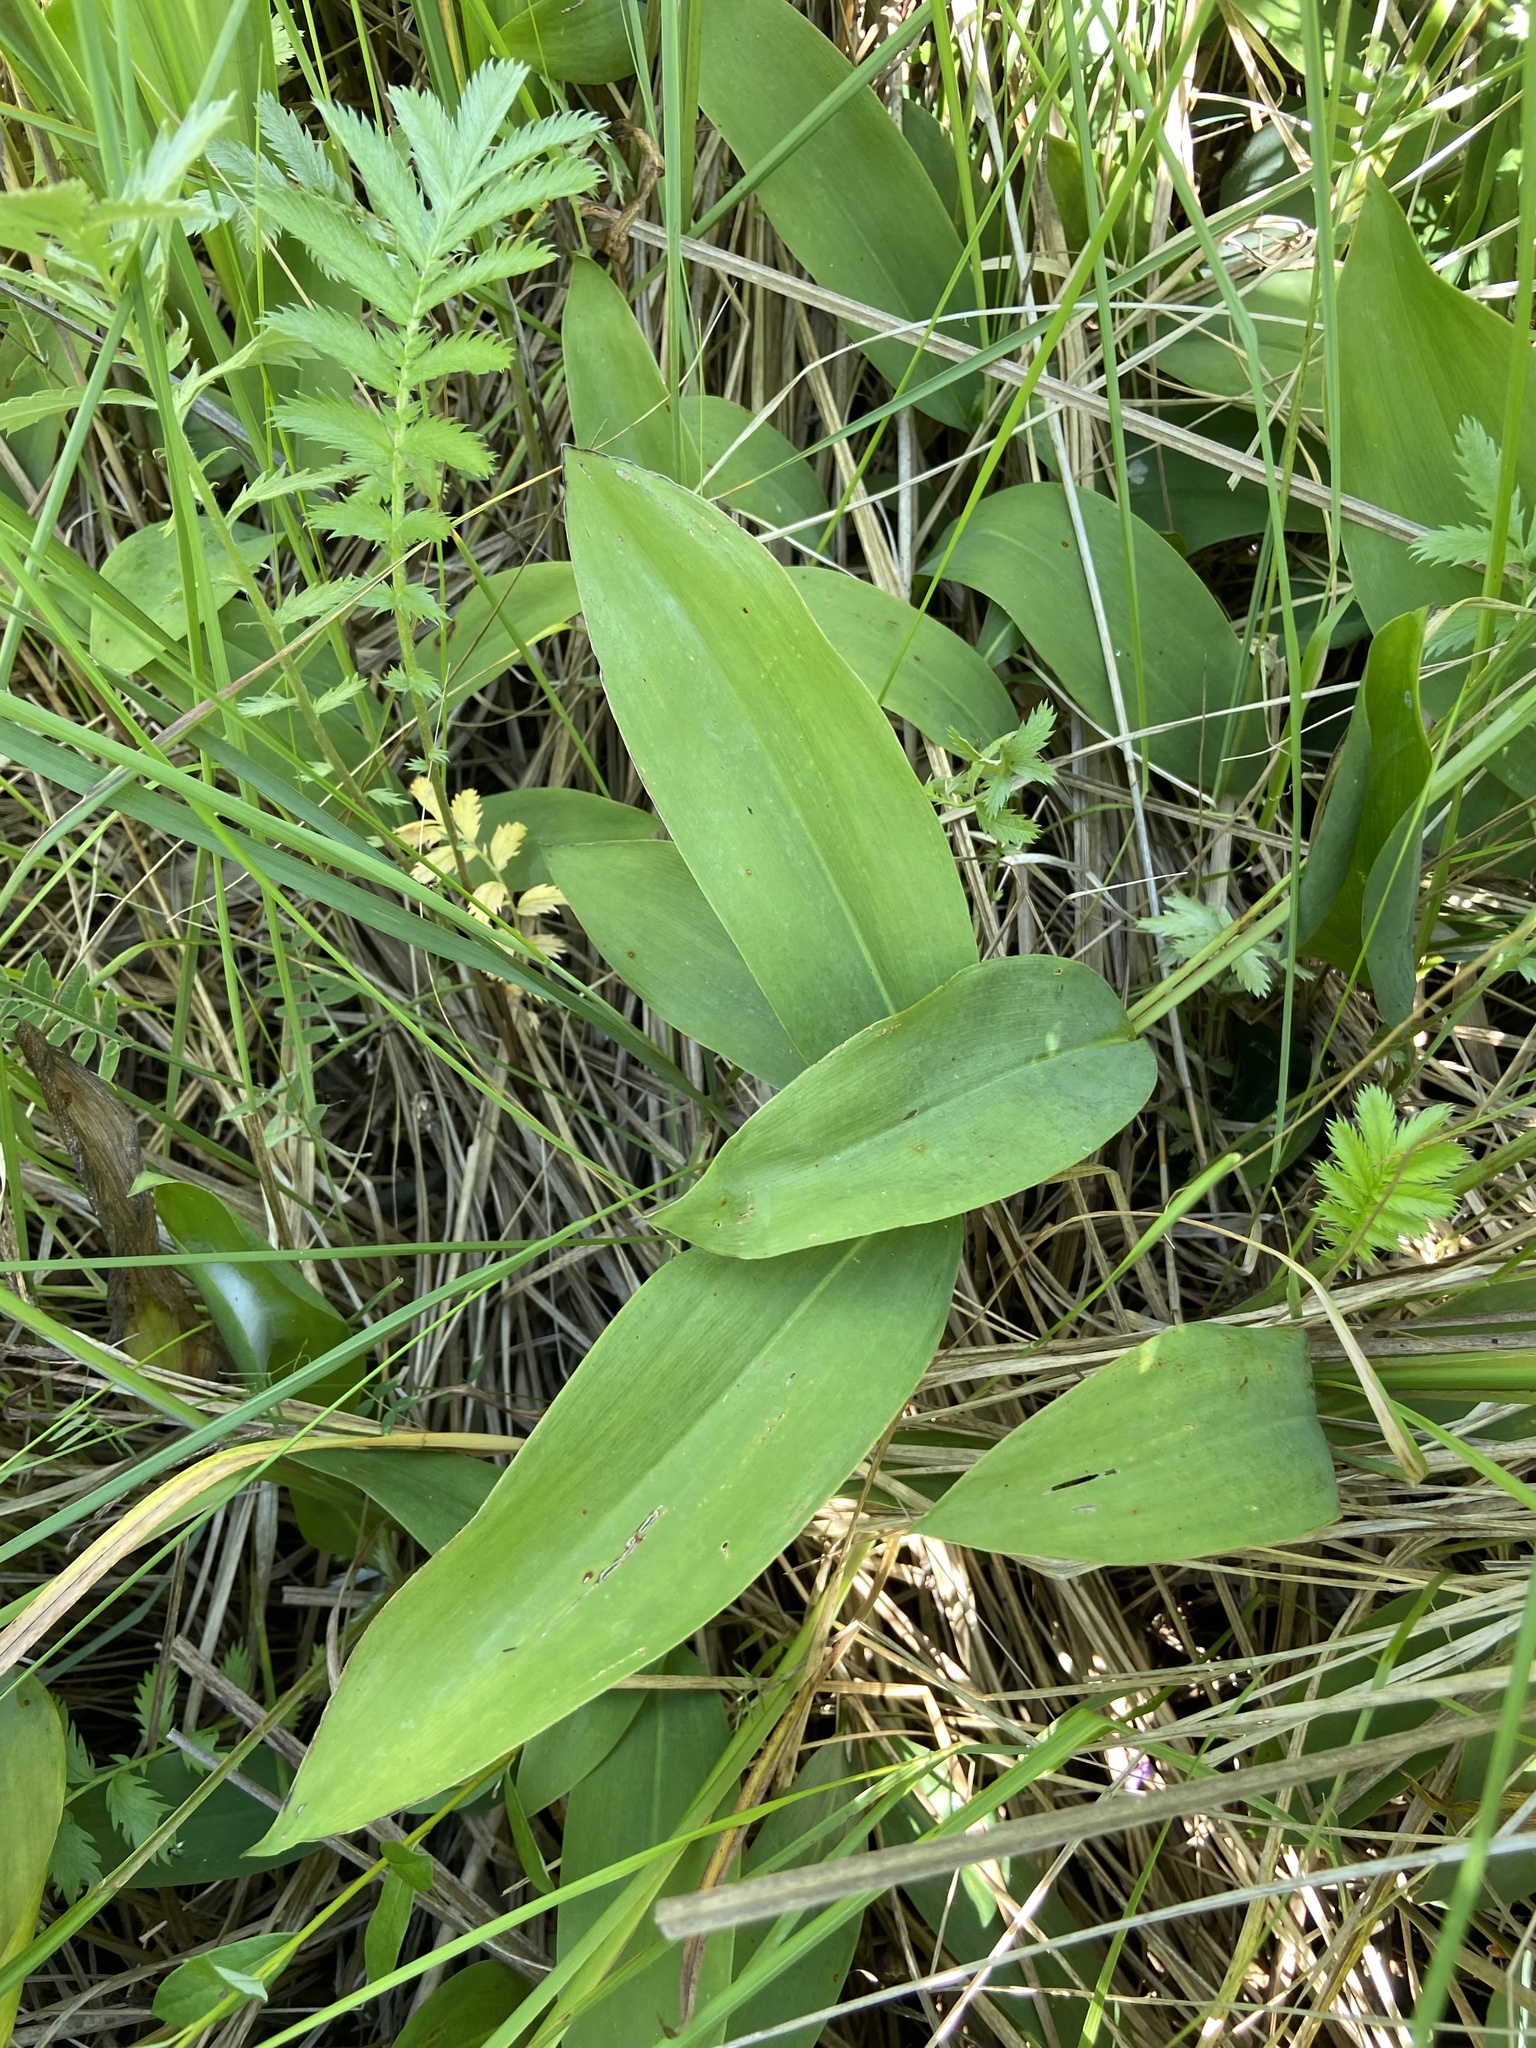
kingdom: Plantae
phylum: Tracheophyta
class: Liliopsida
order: Asparagales
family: Asparagaceae
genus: Convallaria
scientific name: Convallaria majalis
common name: Lily-of-the-valley
